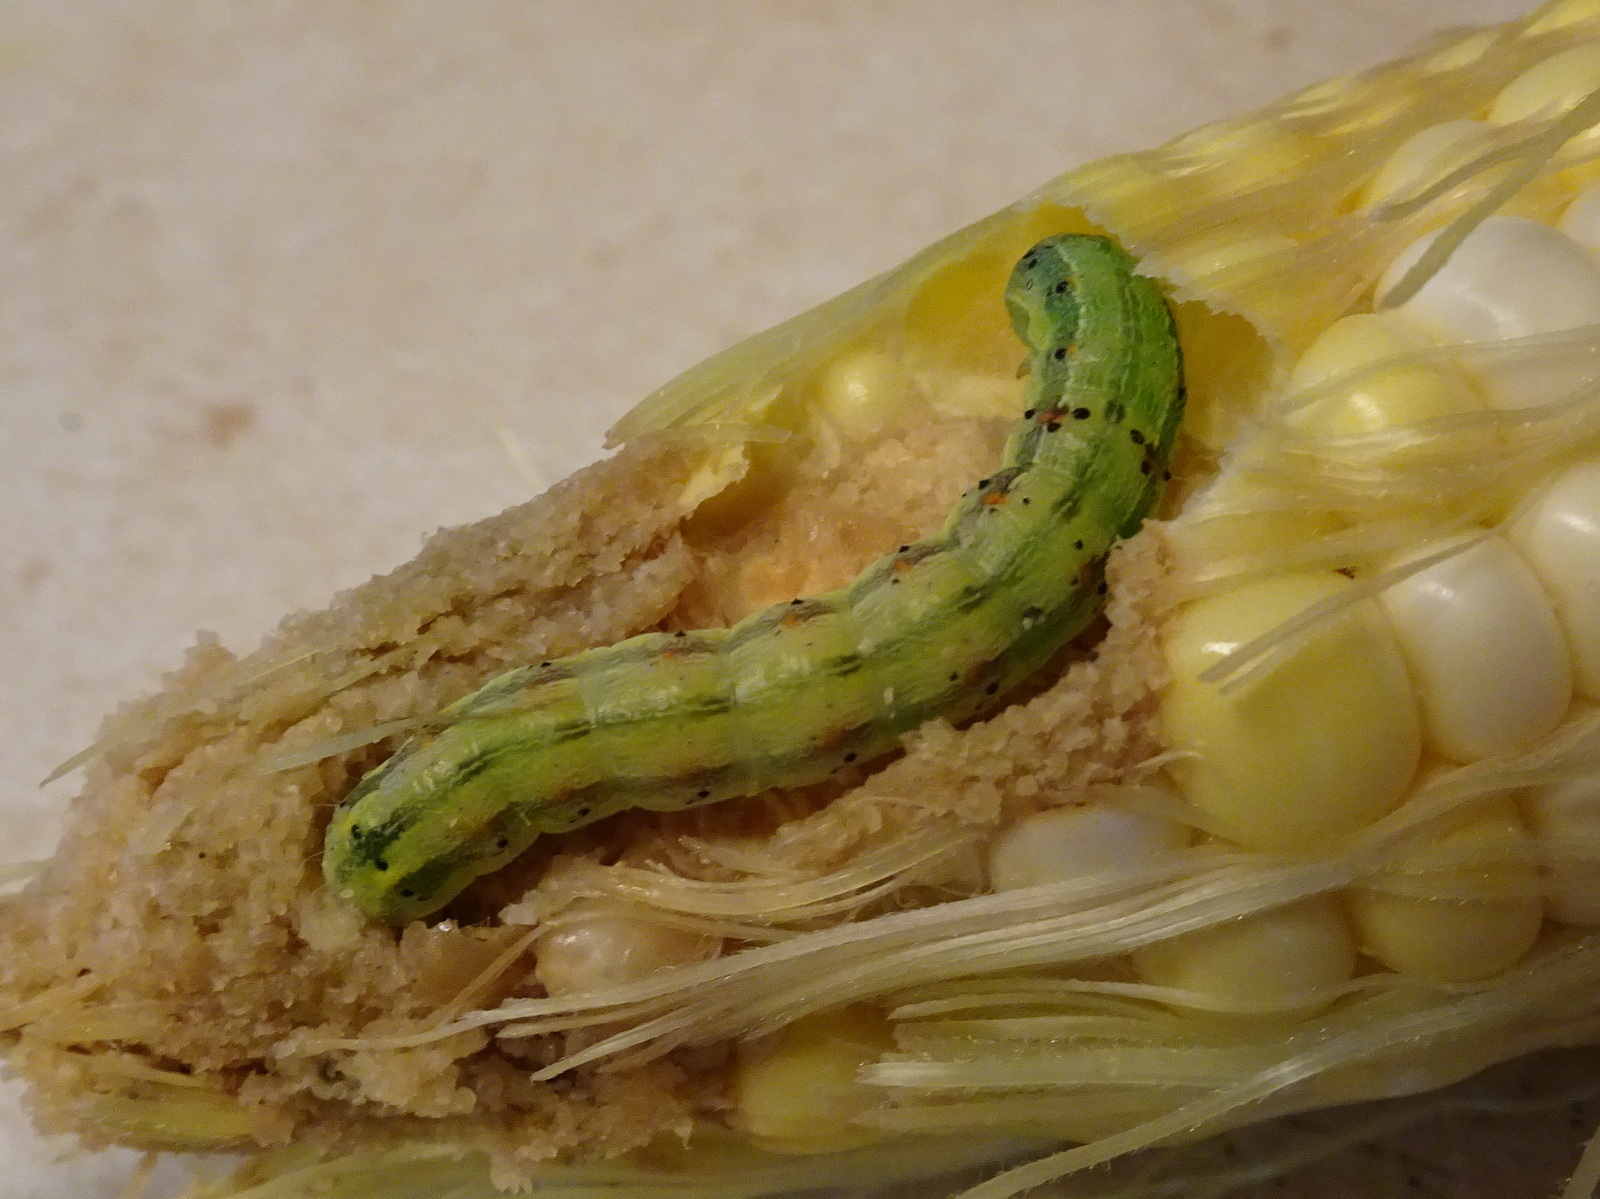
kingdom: Animalia
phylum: Arthropoda
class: Insecta
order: Lepidoptera
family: Noctuidae
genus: Helicoverpa
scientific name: Helicoverpa zea
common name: Bollworm
